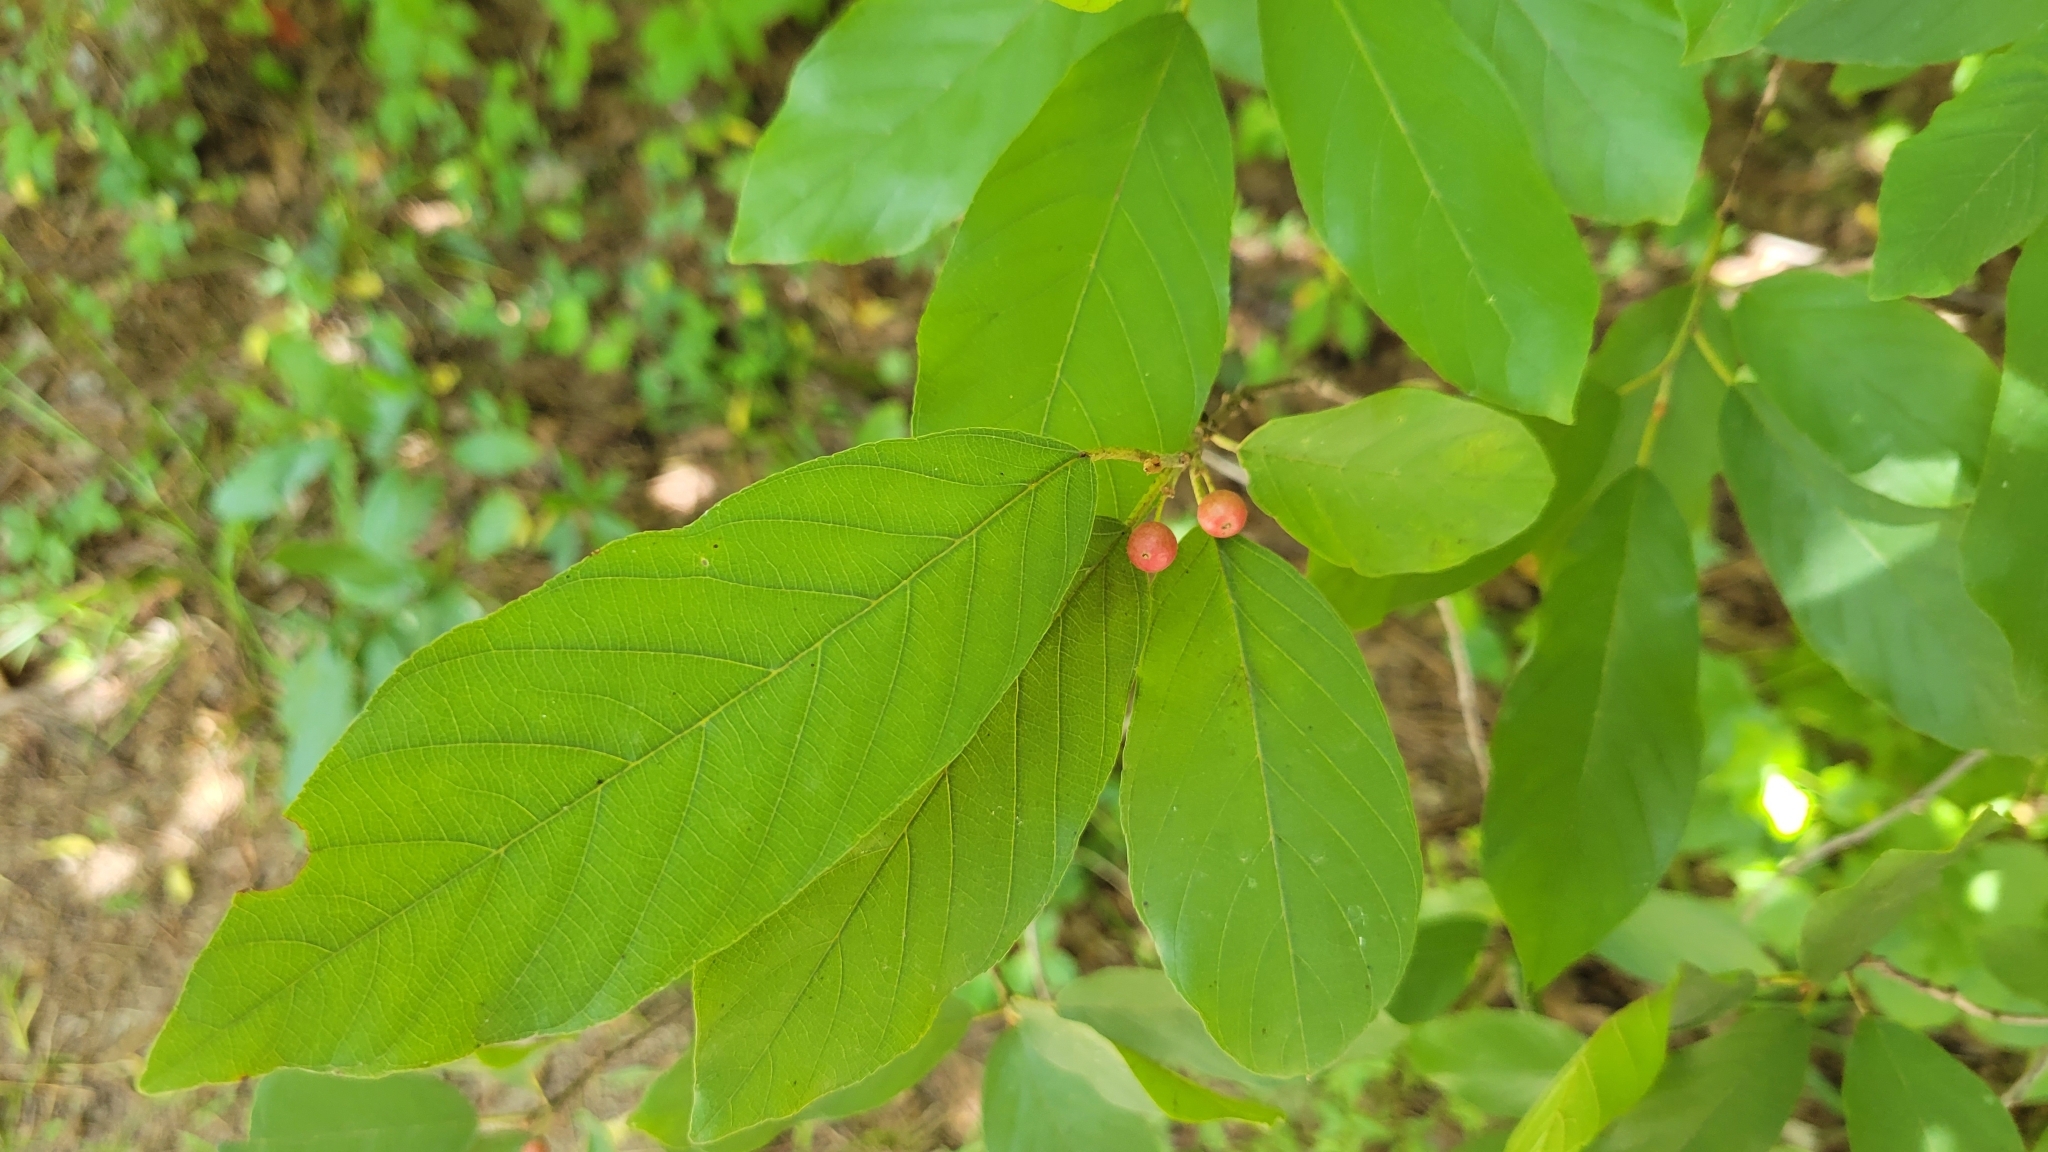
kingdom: Plantae
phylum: Tracheophyta
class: Magnoliopsida
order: Rosales
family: Rhamnaceae
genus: Frangula
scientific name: Frangula caroliniana
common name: Carolina buckthorn
